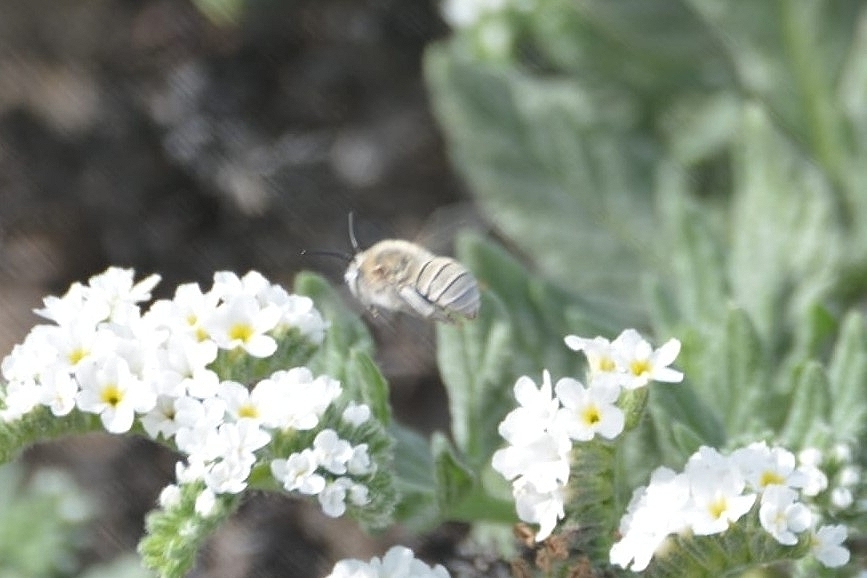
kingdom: Animalia
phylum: Arthropoda
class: Insecta
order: Hymenoptera
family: Apidae
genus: Anthophora
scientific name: Anthophora pulverosa
